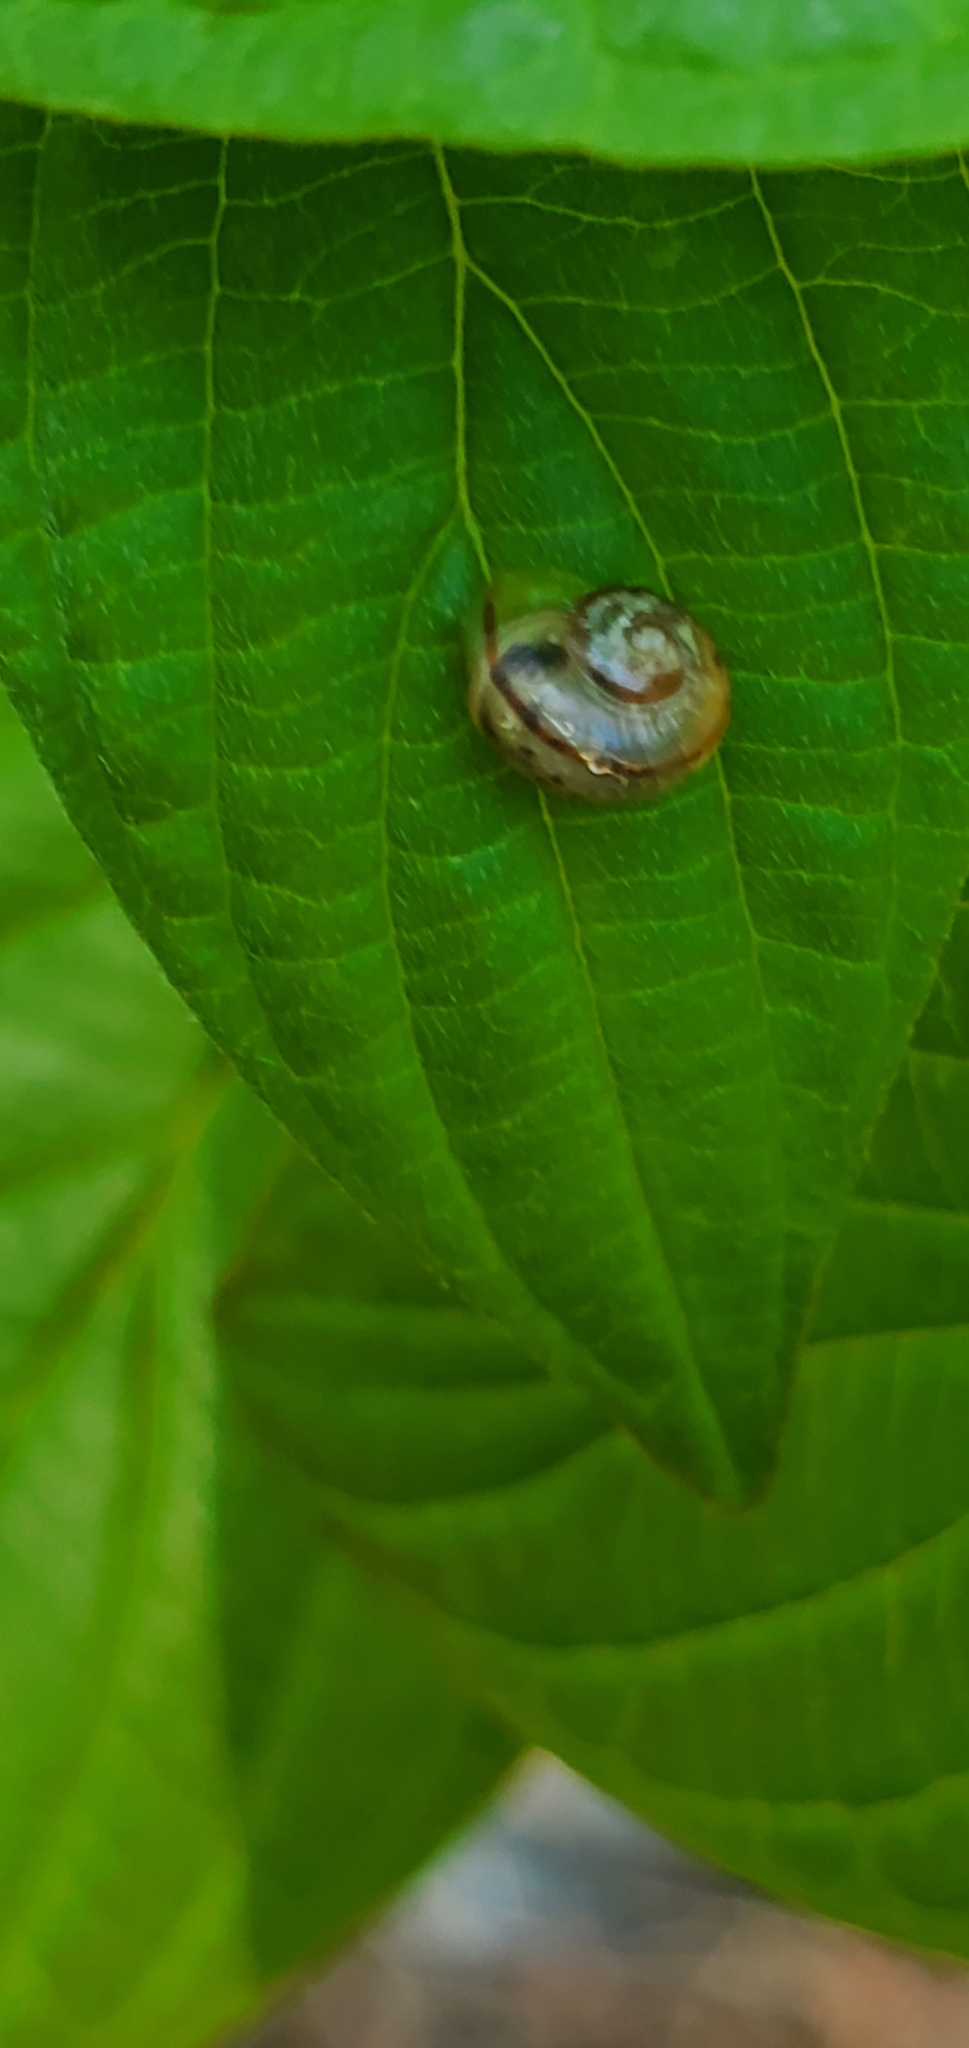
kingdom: Animalia
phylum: Mollusca
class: Gastropoda
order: Stylommatophora
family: Helicidae
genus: Cepaea
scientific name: Cepaea nemoralis
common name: Grovesnail
